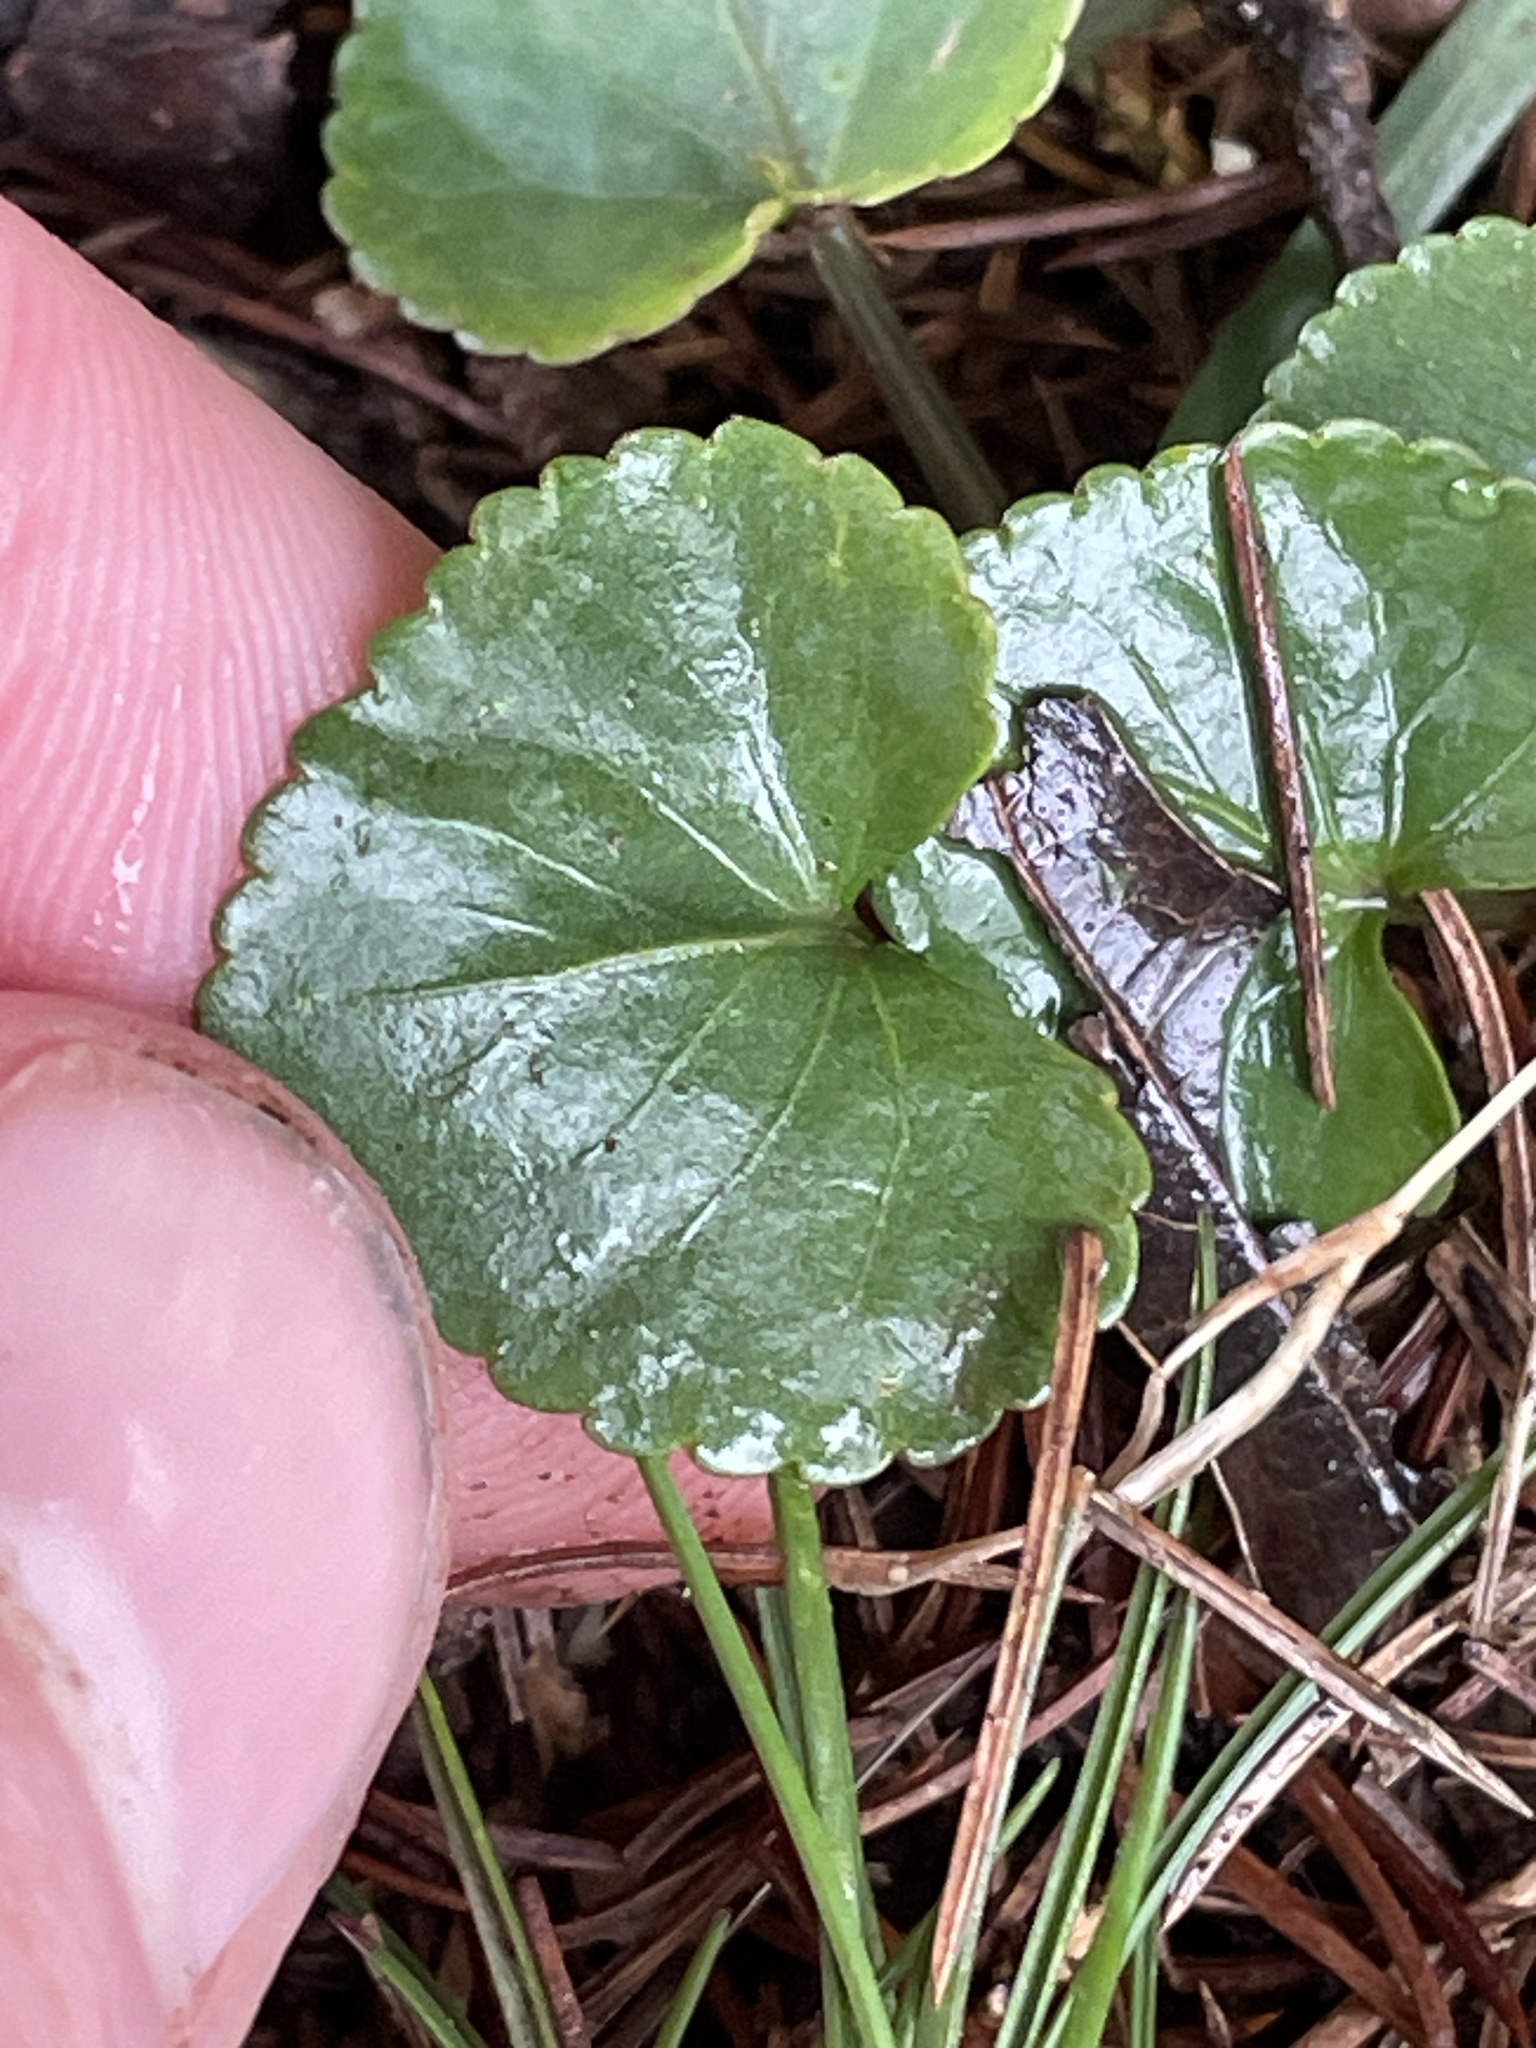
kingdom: Plantae
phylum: Tracheophyta
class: Magnoliopsida
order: Malpighiales
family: Violaceae
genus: Viola
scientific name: Viola communis
